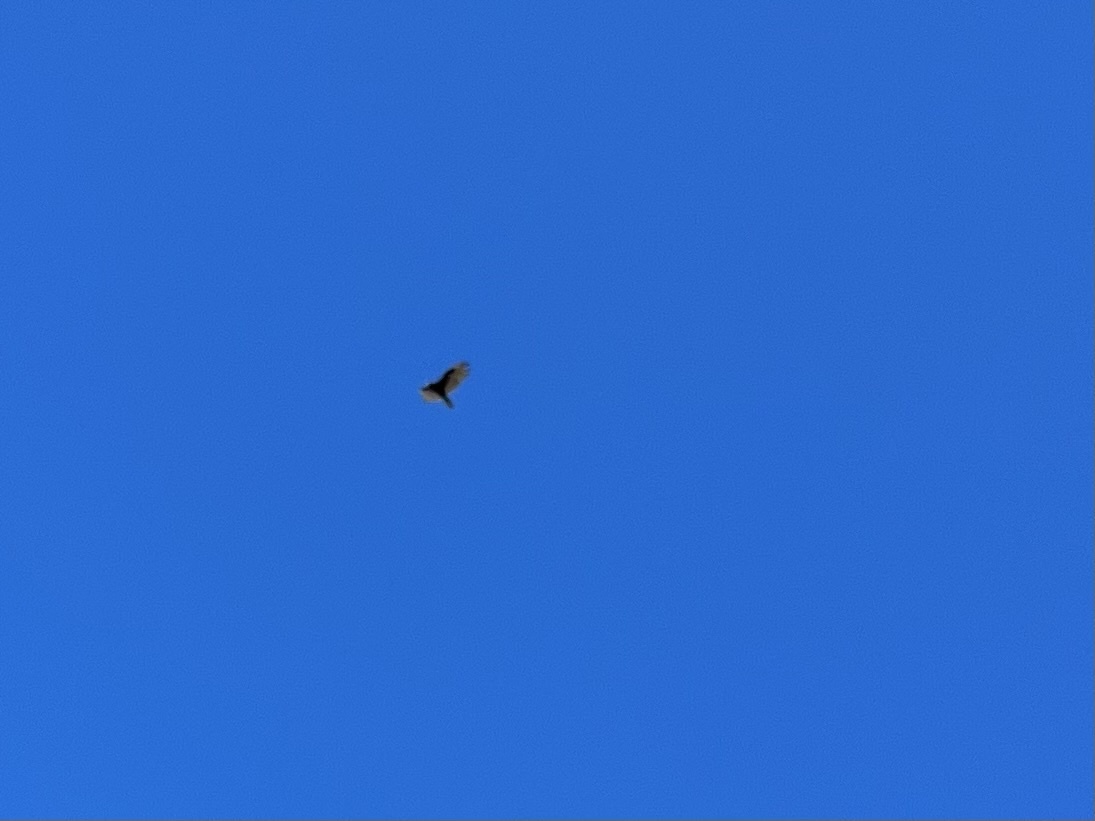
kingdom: Animalia
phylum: Chordata
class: Aves
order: Accipitriformes
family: Cathartidae
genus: Cathartes
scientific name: Cathartes aura
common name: Turkey vulture
